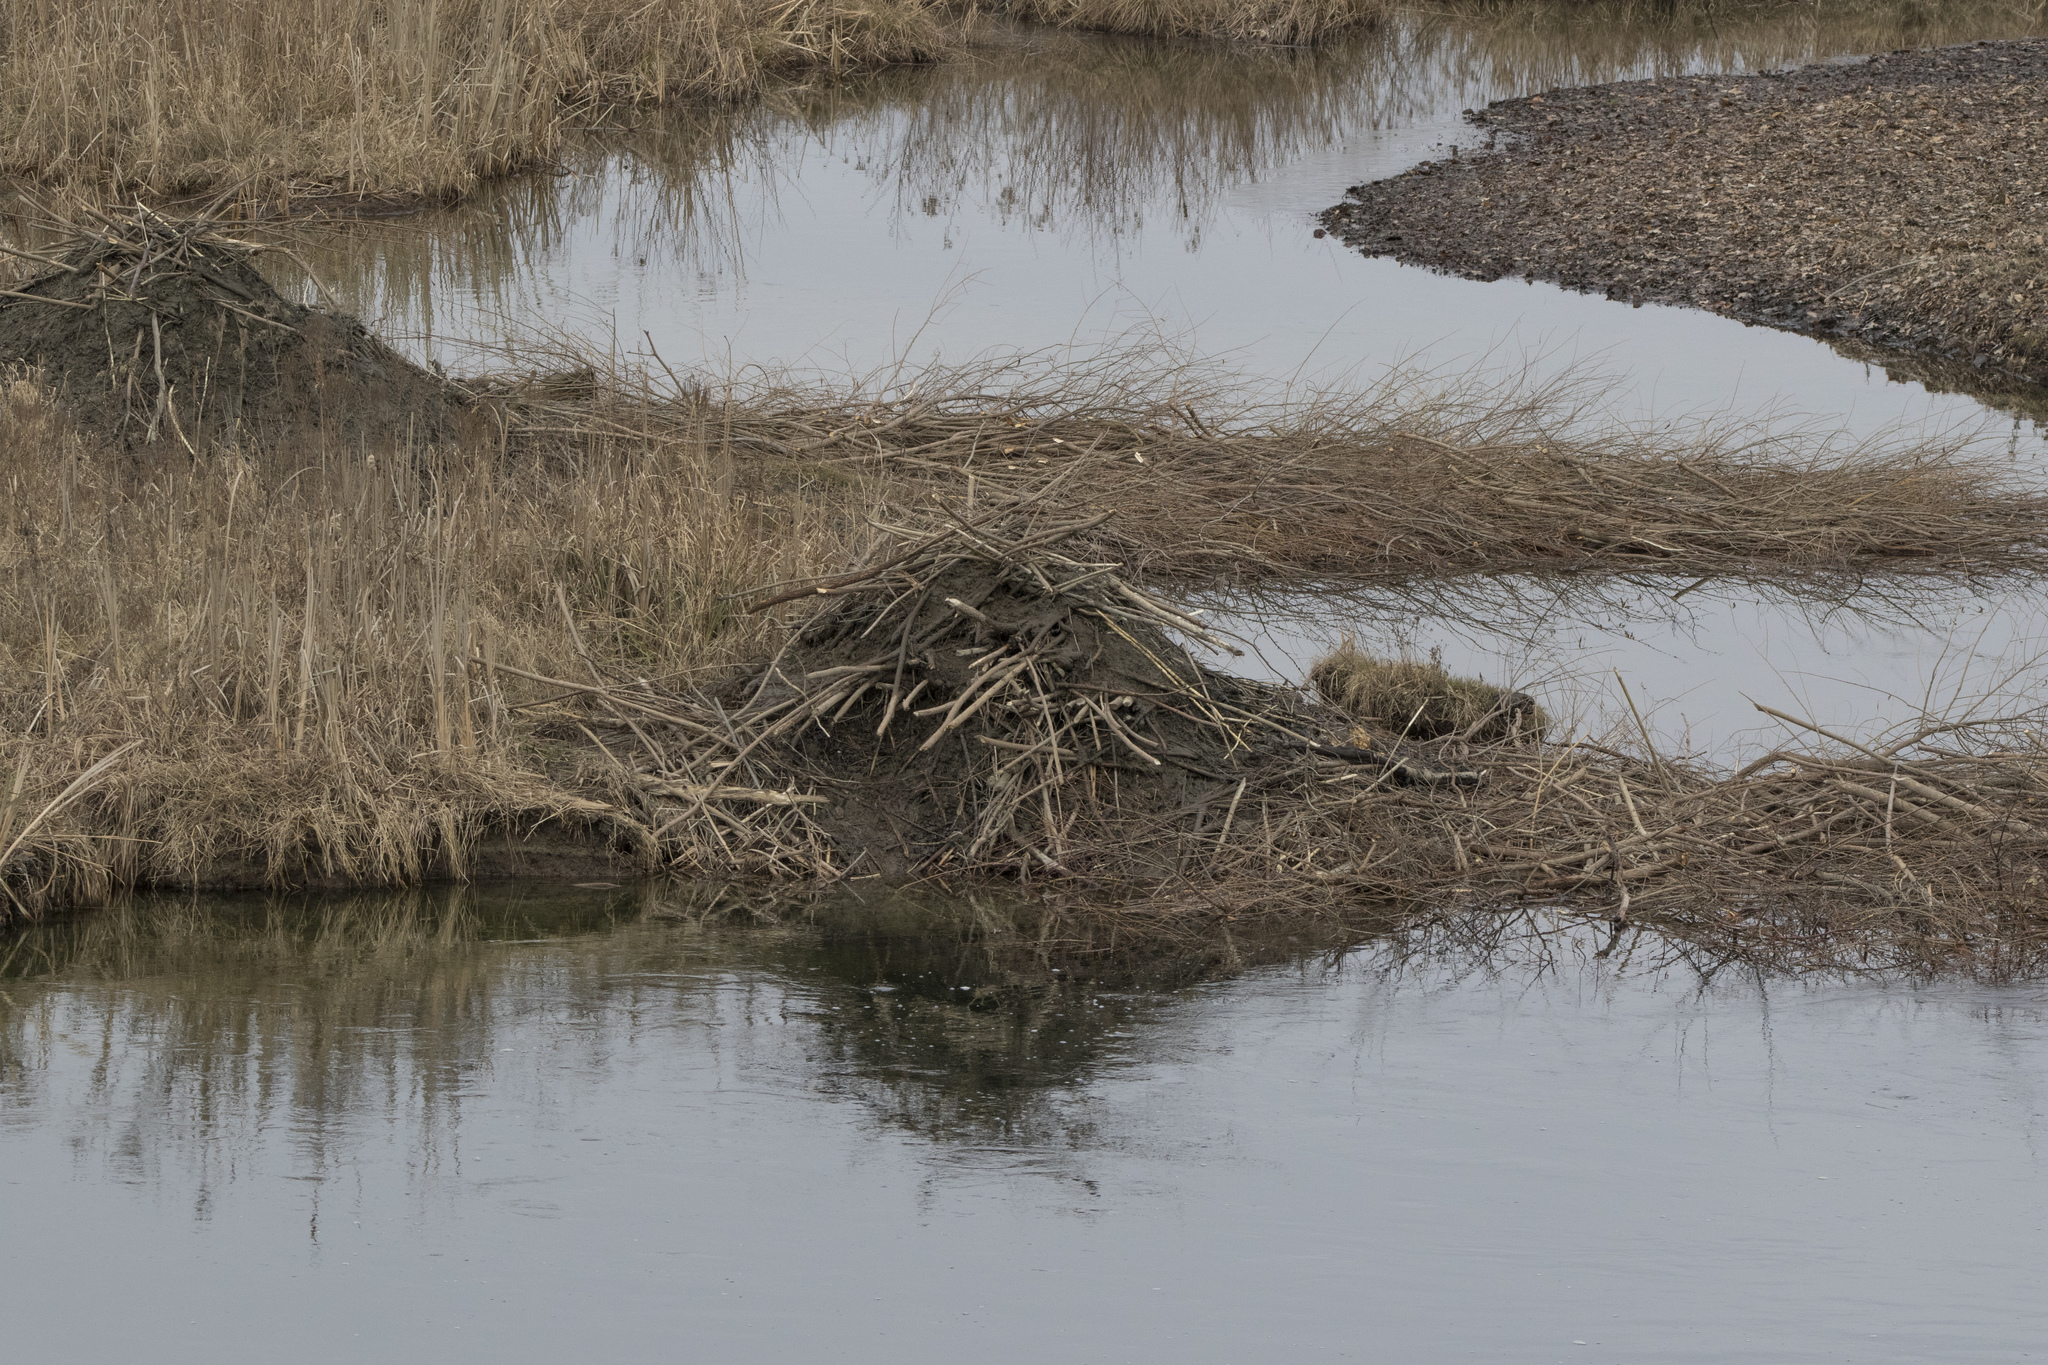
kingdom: Animalia
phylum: Chordata
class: Mammalia
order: Rodentia
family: Castoridae
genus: Castor
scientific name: Castor canadensis
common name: American beaver
